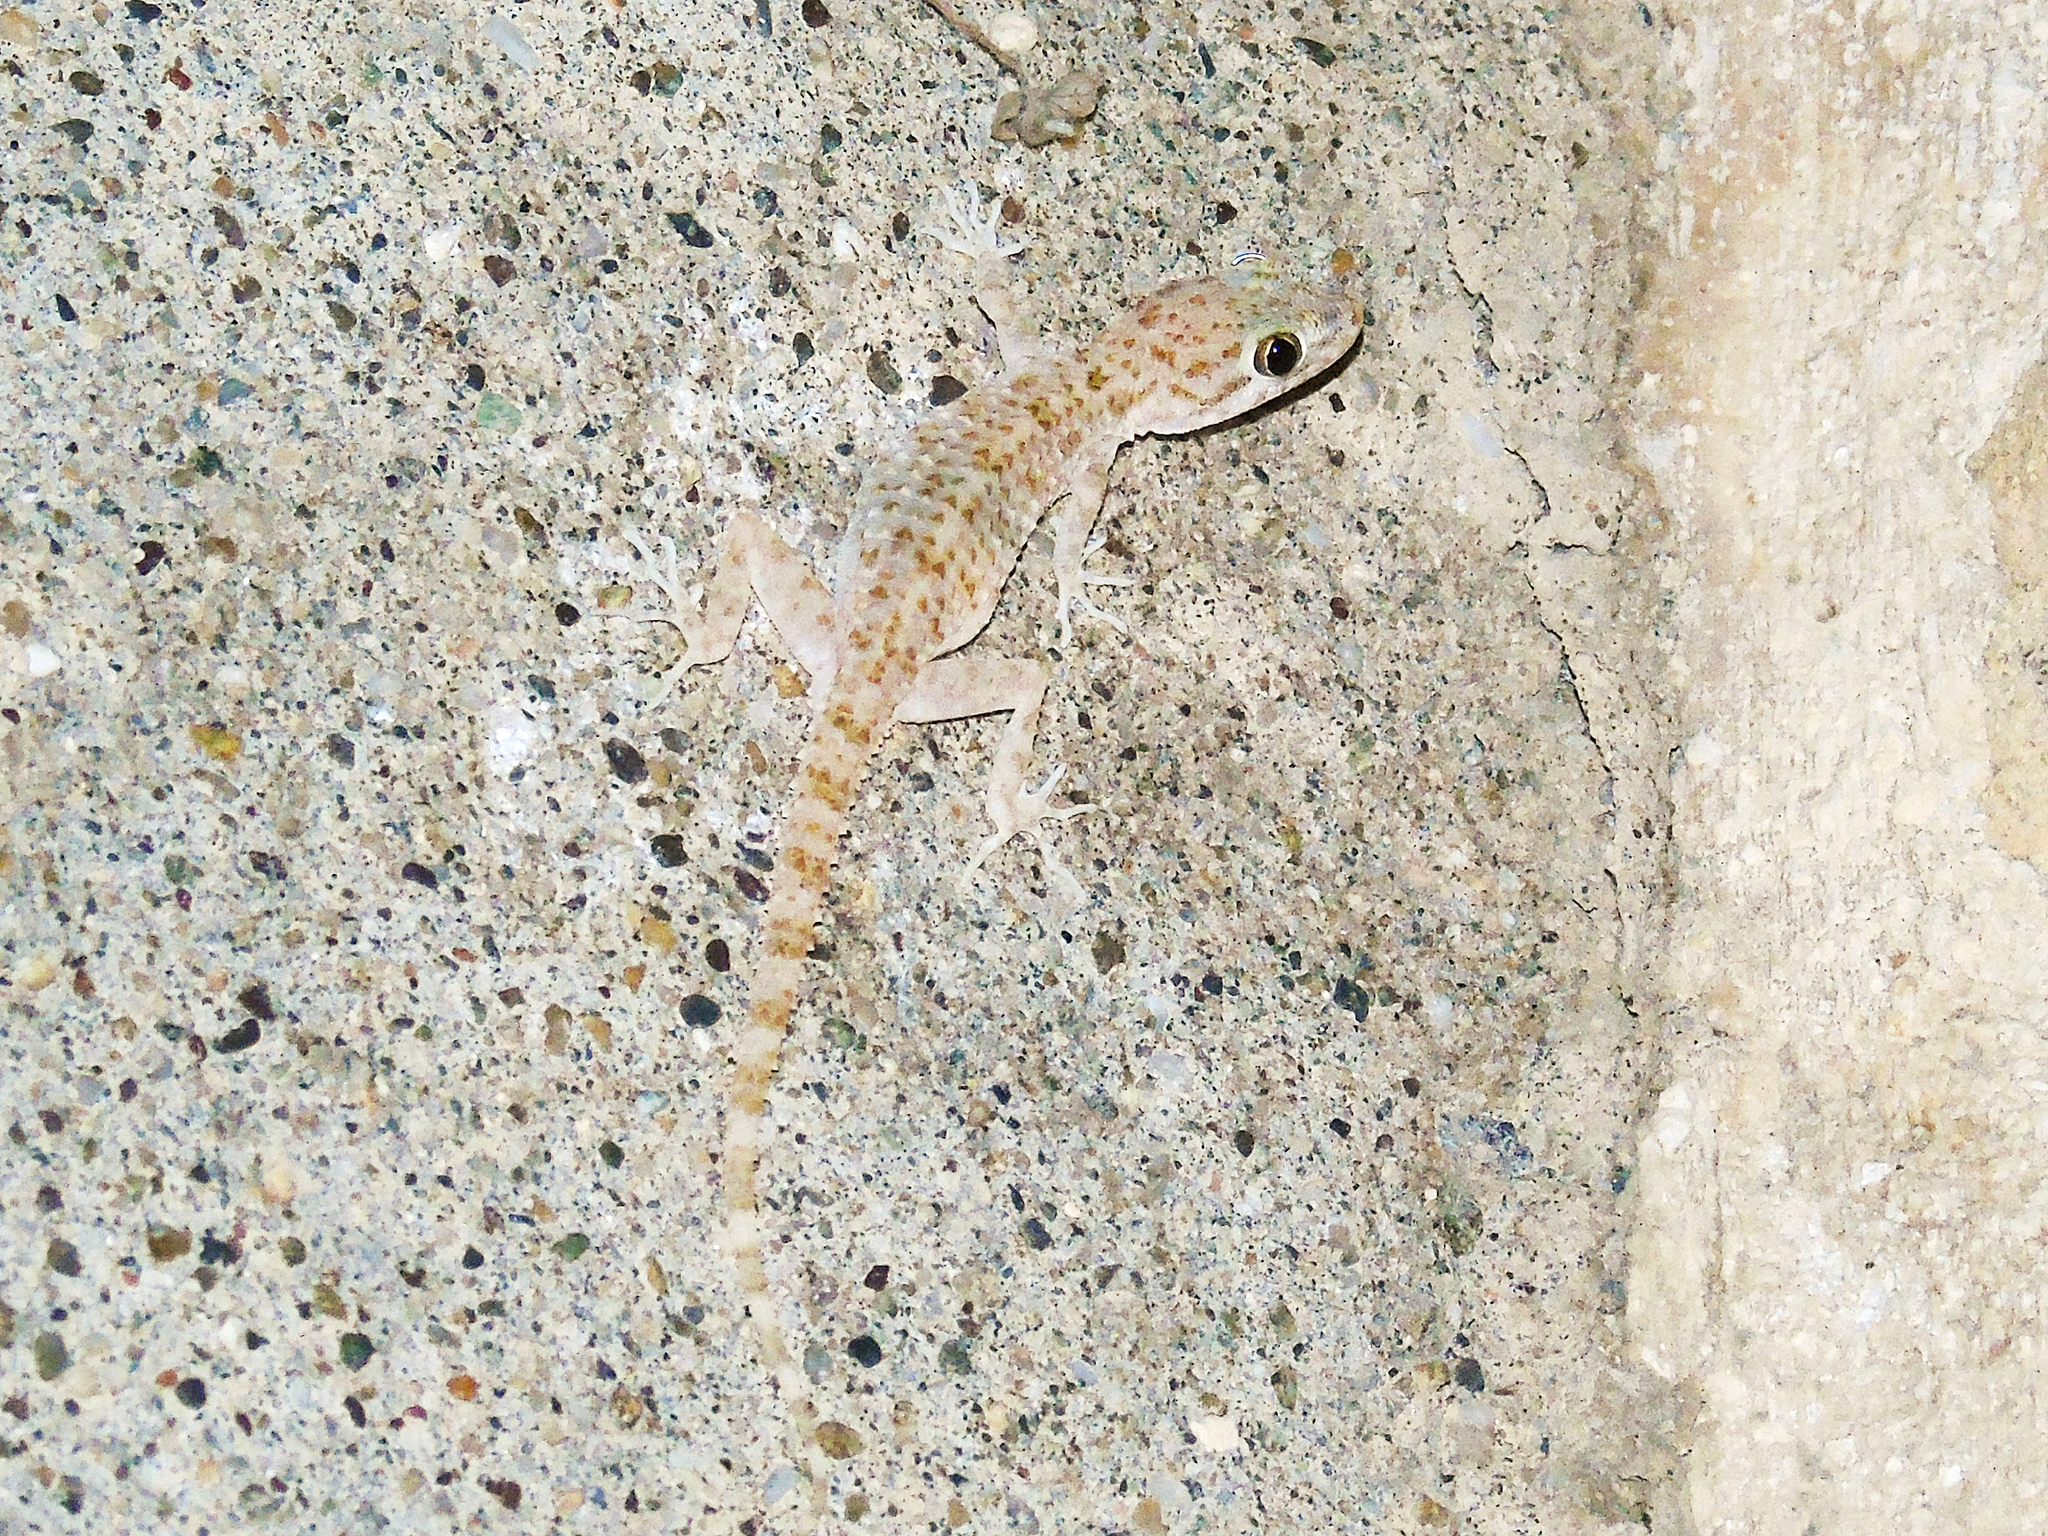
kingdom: Animalia
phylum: Chordata
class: Squamata
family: Gekkonidae
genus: Cyrtopodion
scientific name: Cyrtopodion scabrum
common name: Rough-tailed gecko
